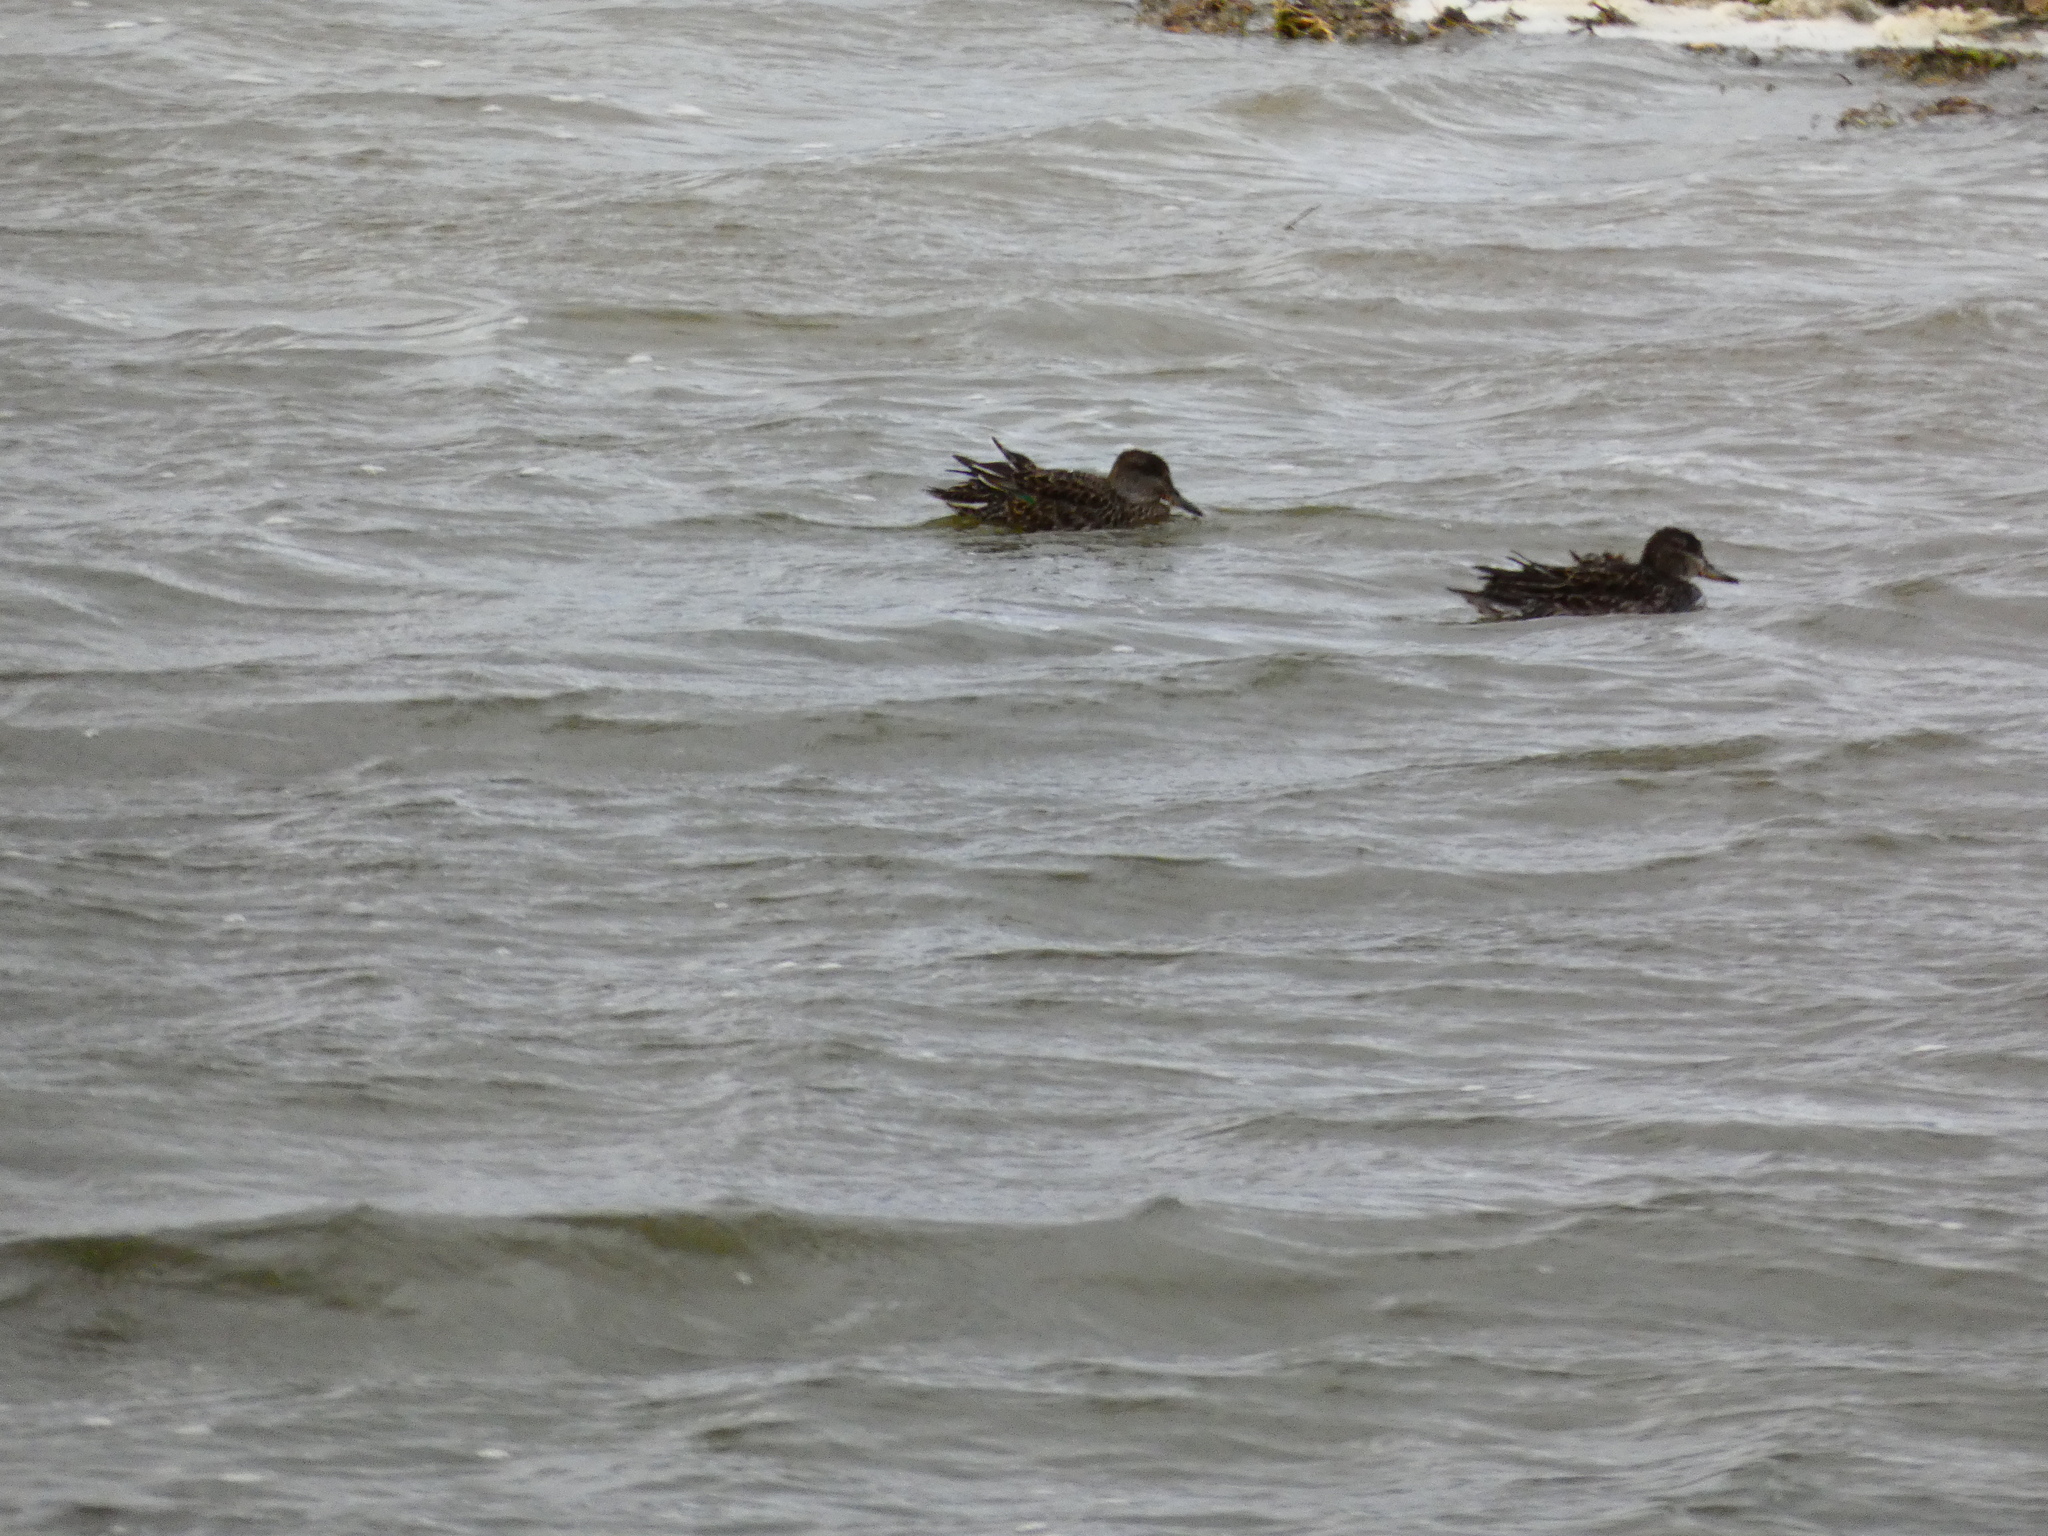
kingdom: Animalia
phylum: Chordata
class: Aves
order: Anseriformes
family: Anatidae
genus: Anas
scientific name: Anas crecca
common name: Eurasian teal
